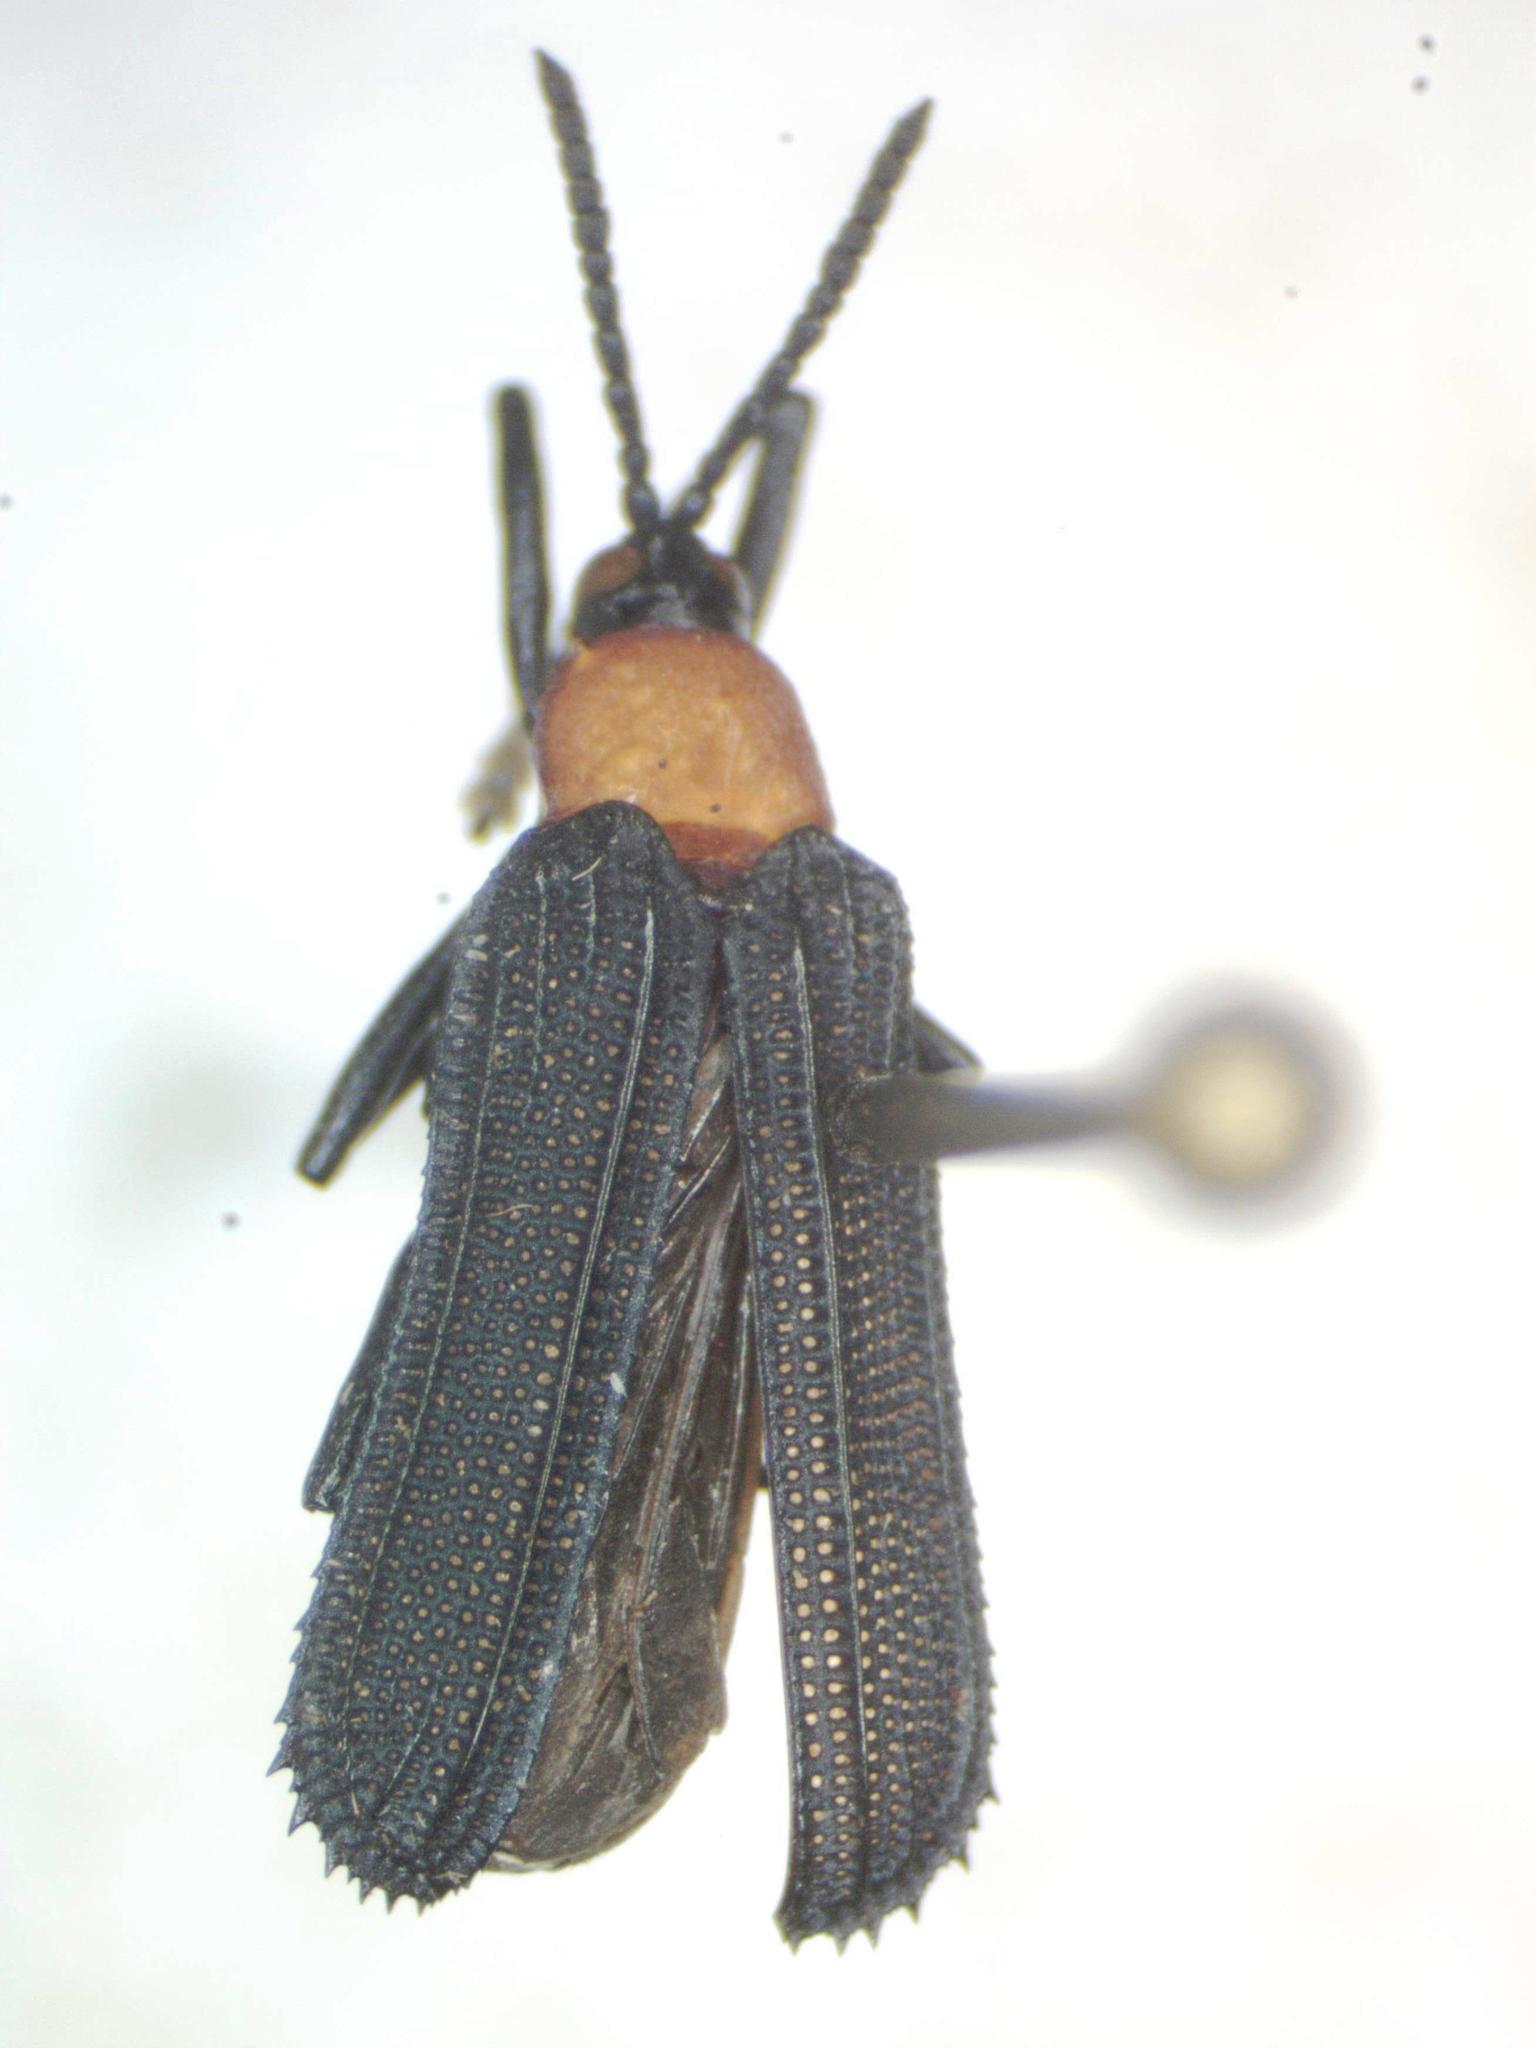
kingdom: Animalia
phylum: Arthropoda
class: Insecta
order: Coleoptera
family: Chrysomelidae
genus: Xenochalepus
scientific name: Xenochalepus rufithorax
